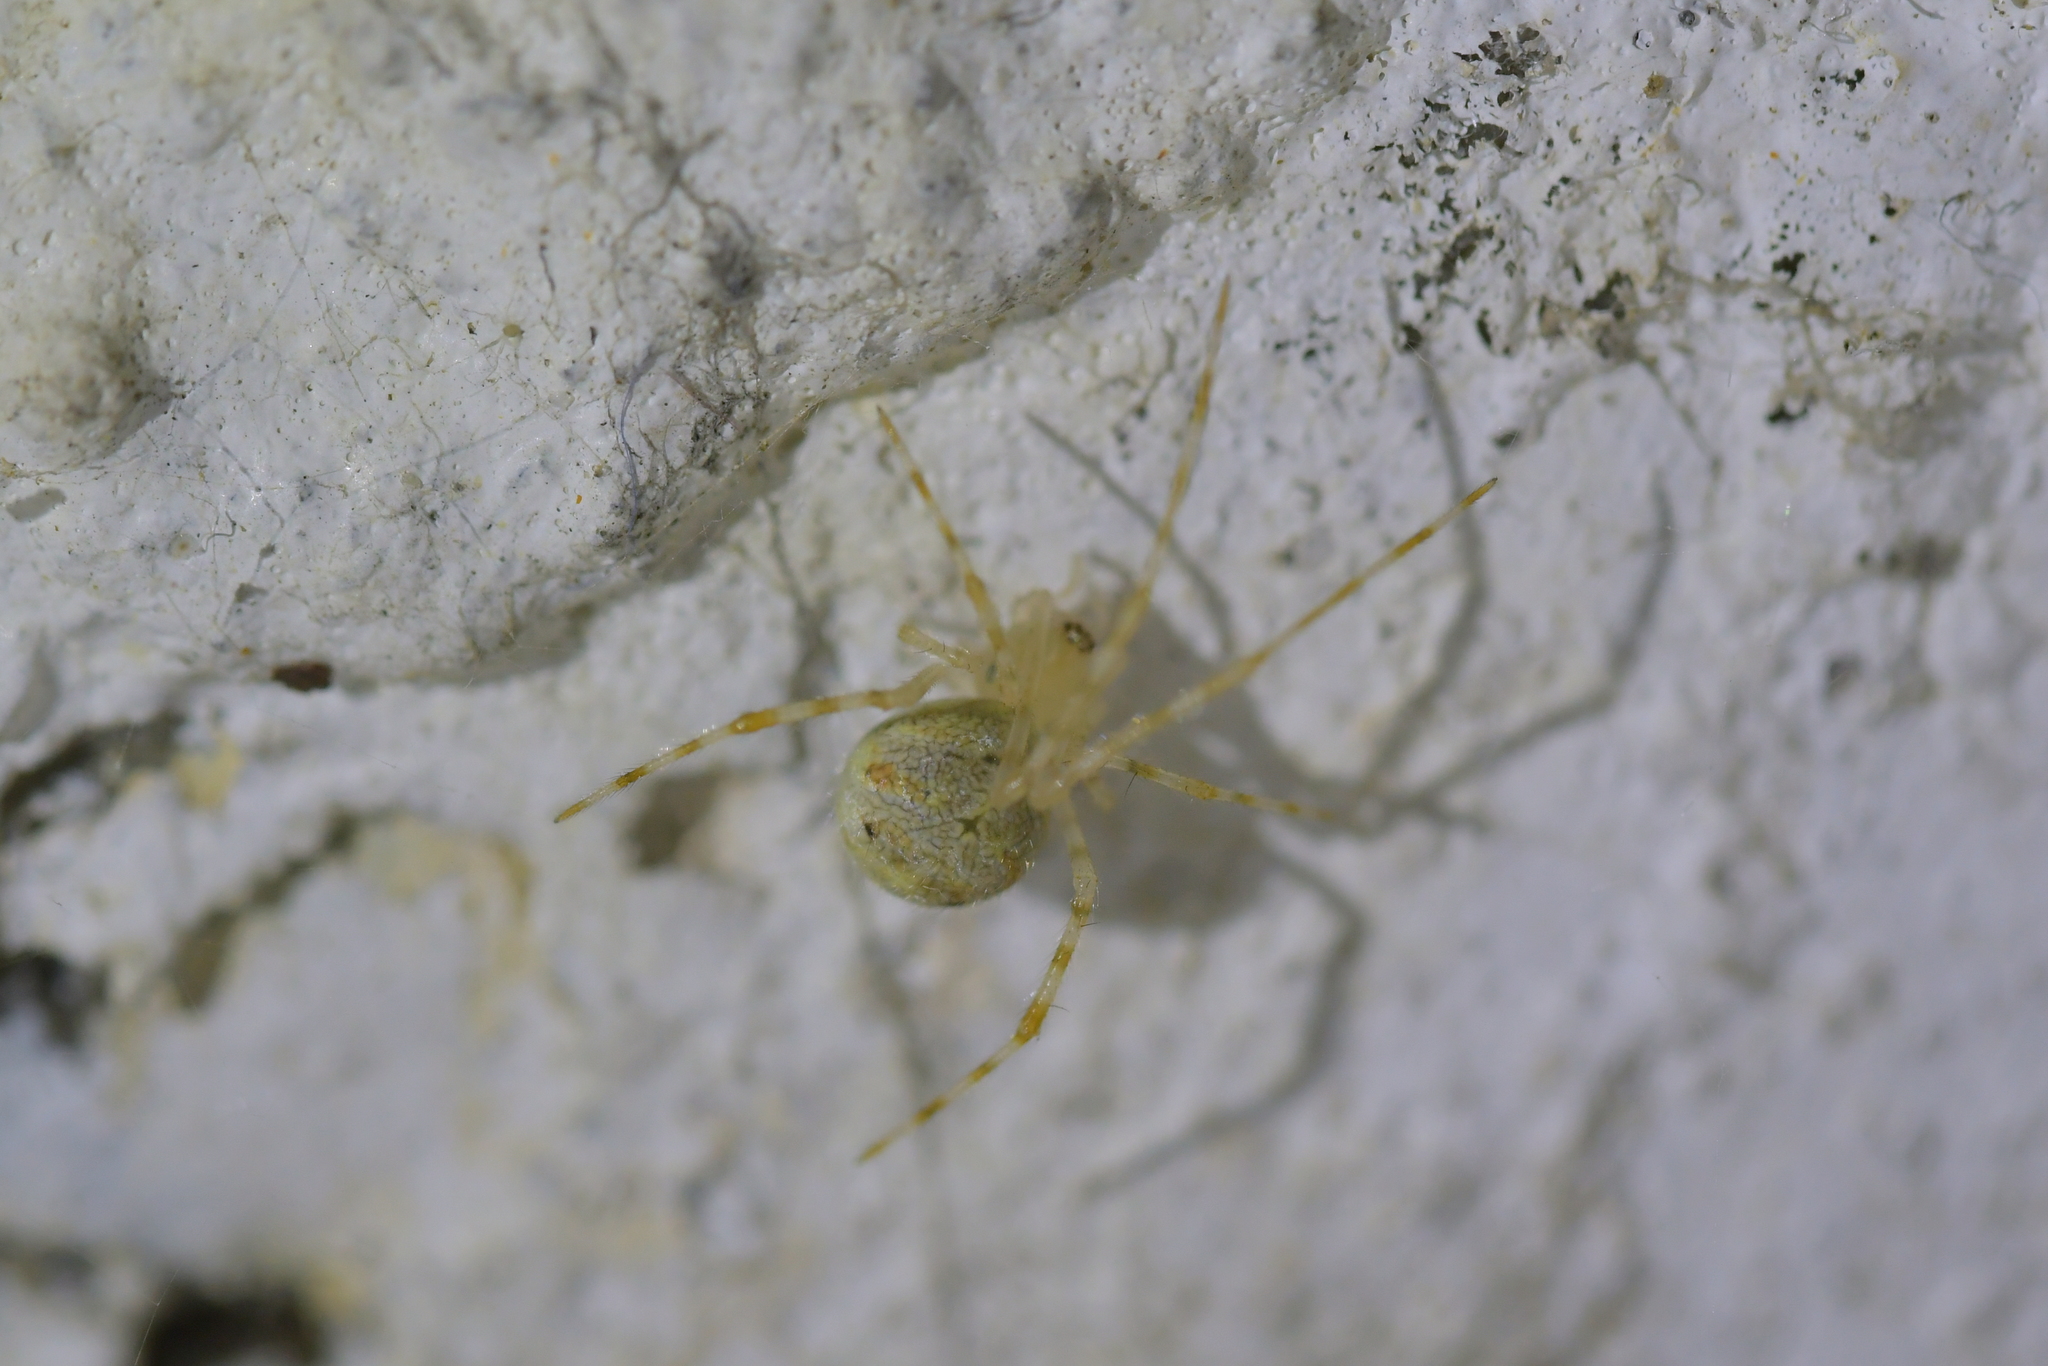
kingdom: Animalia
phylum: Arthropoda
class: Arachnida
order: Araneae
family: Theridiidae
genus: Cryptachaea
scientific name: Cryptachaea gigantipes
